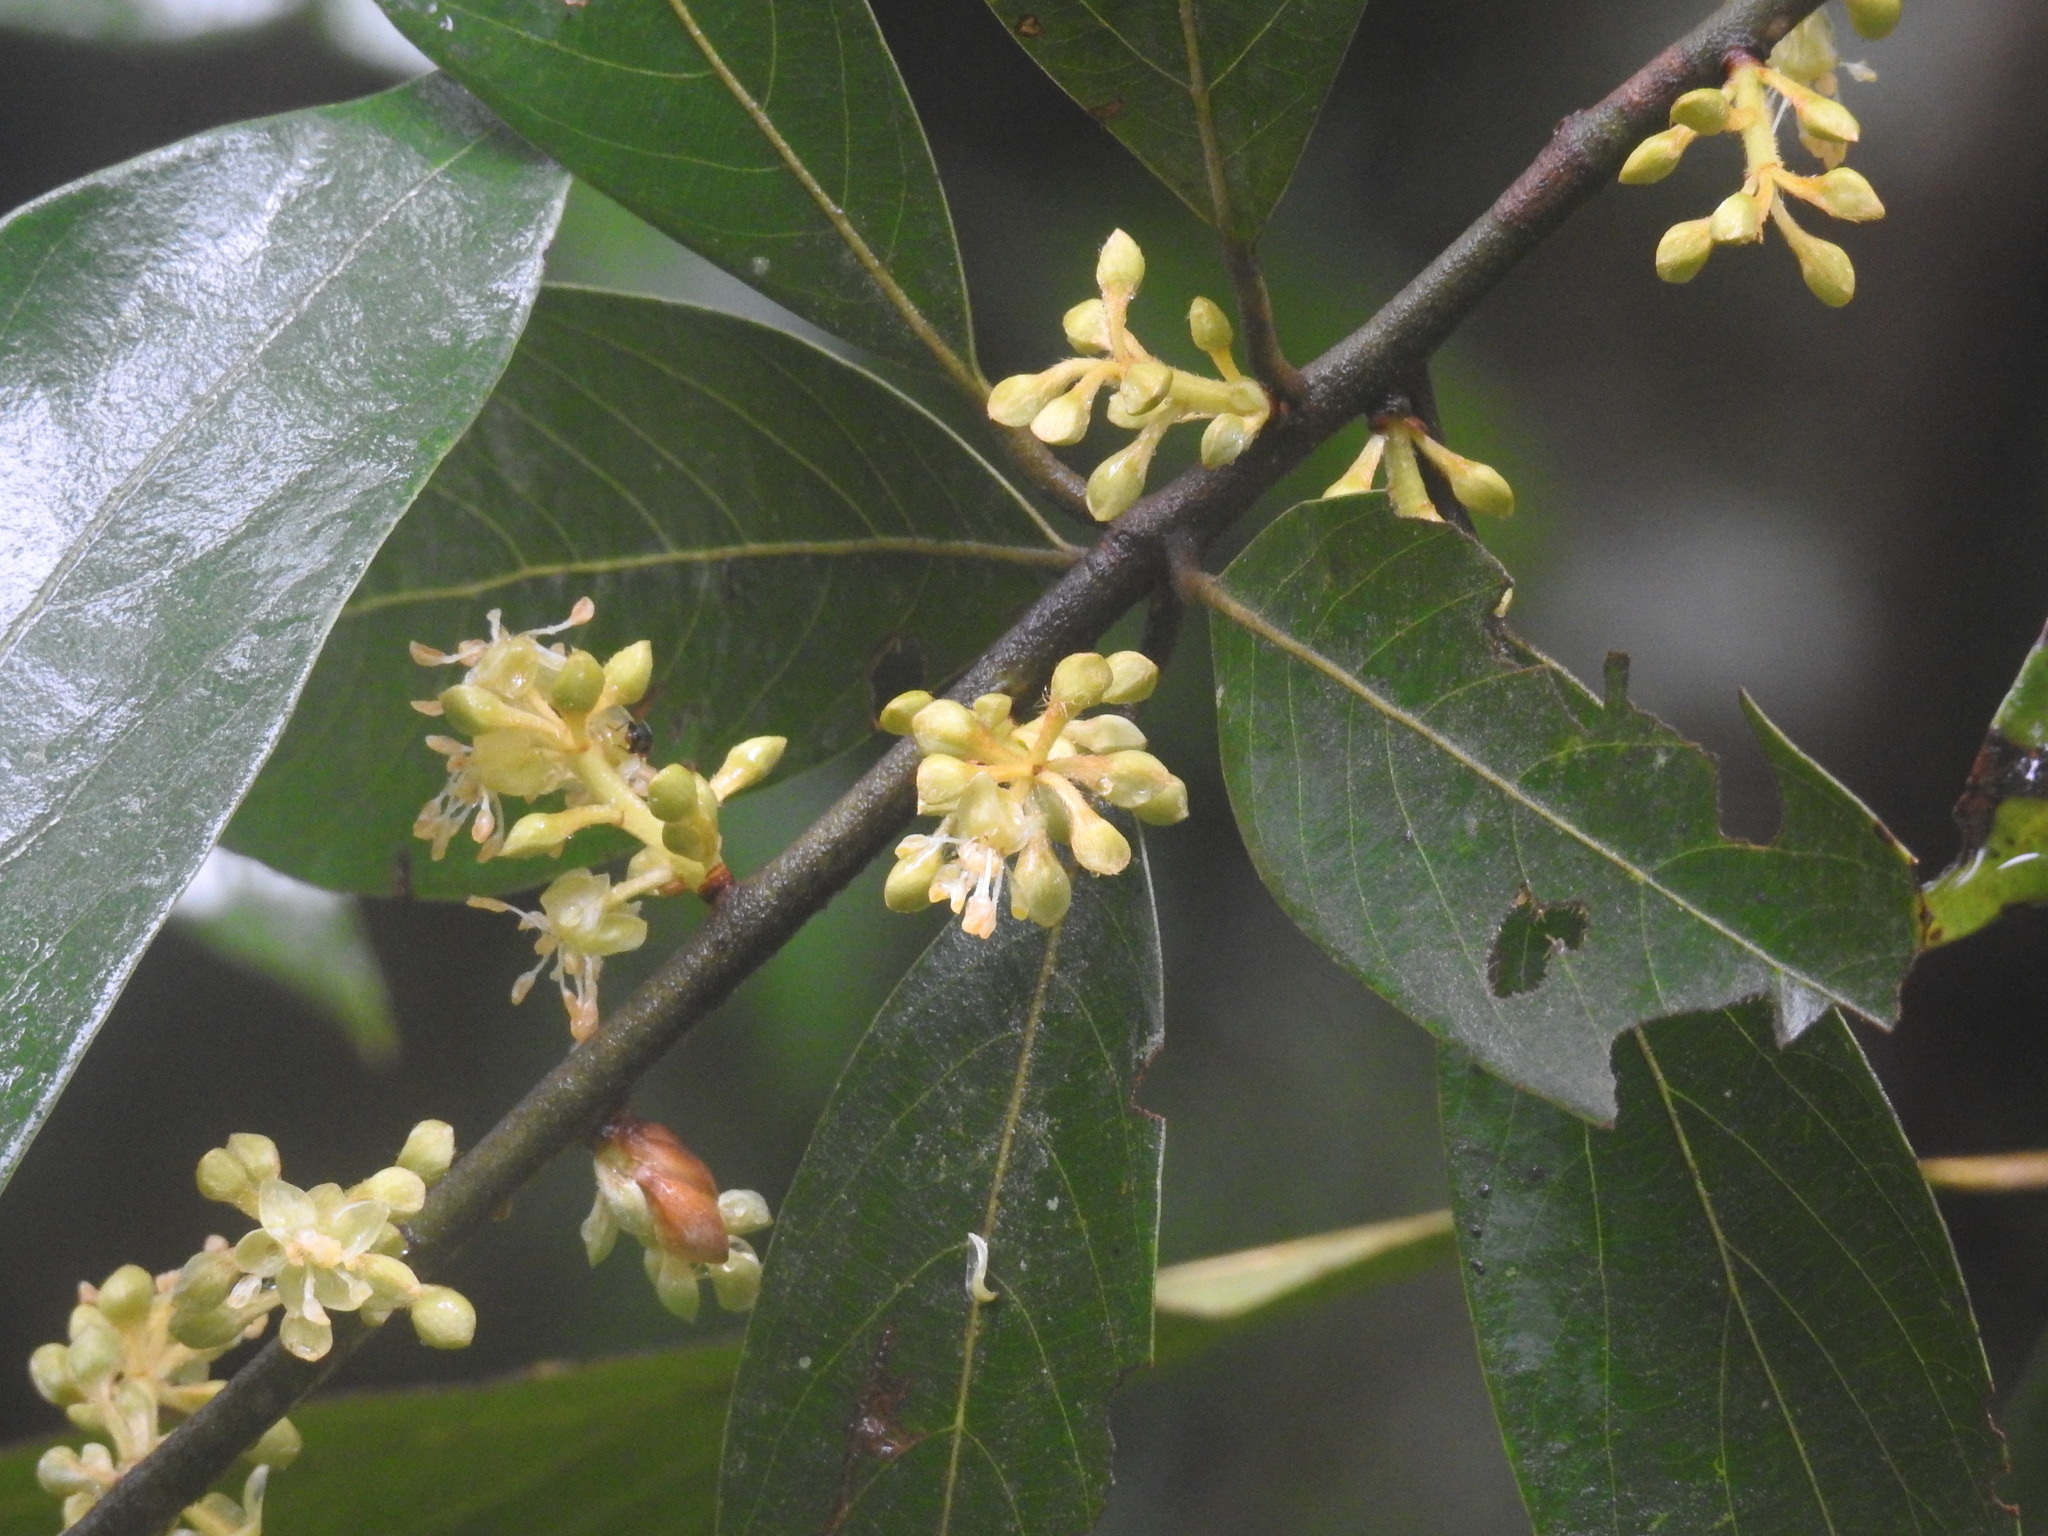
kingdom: Plantae
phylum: Tracheophyta
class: Magnoliopsida
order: Laurales
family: Lauraceae
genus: Actinodaphne
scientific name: Actinodaphne wightiana
